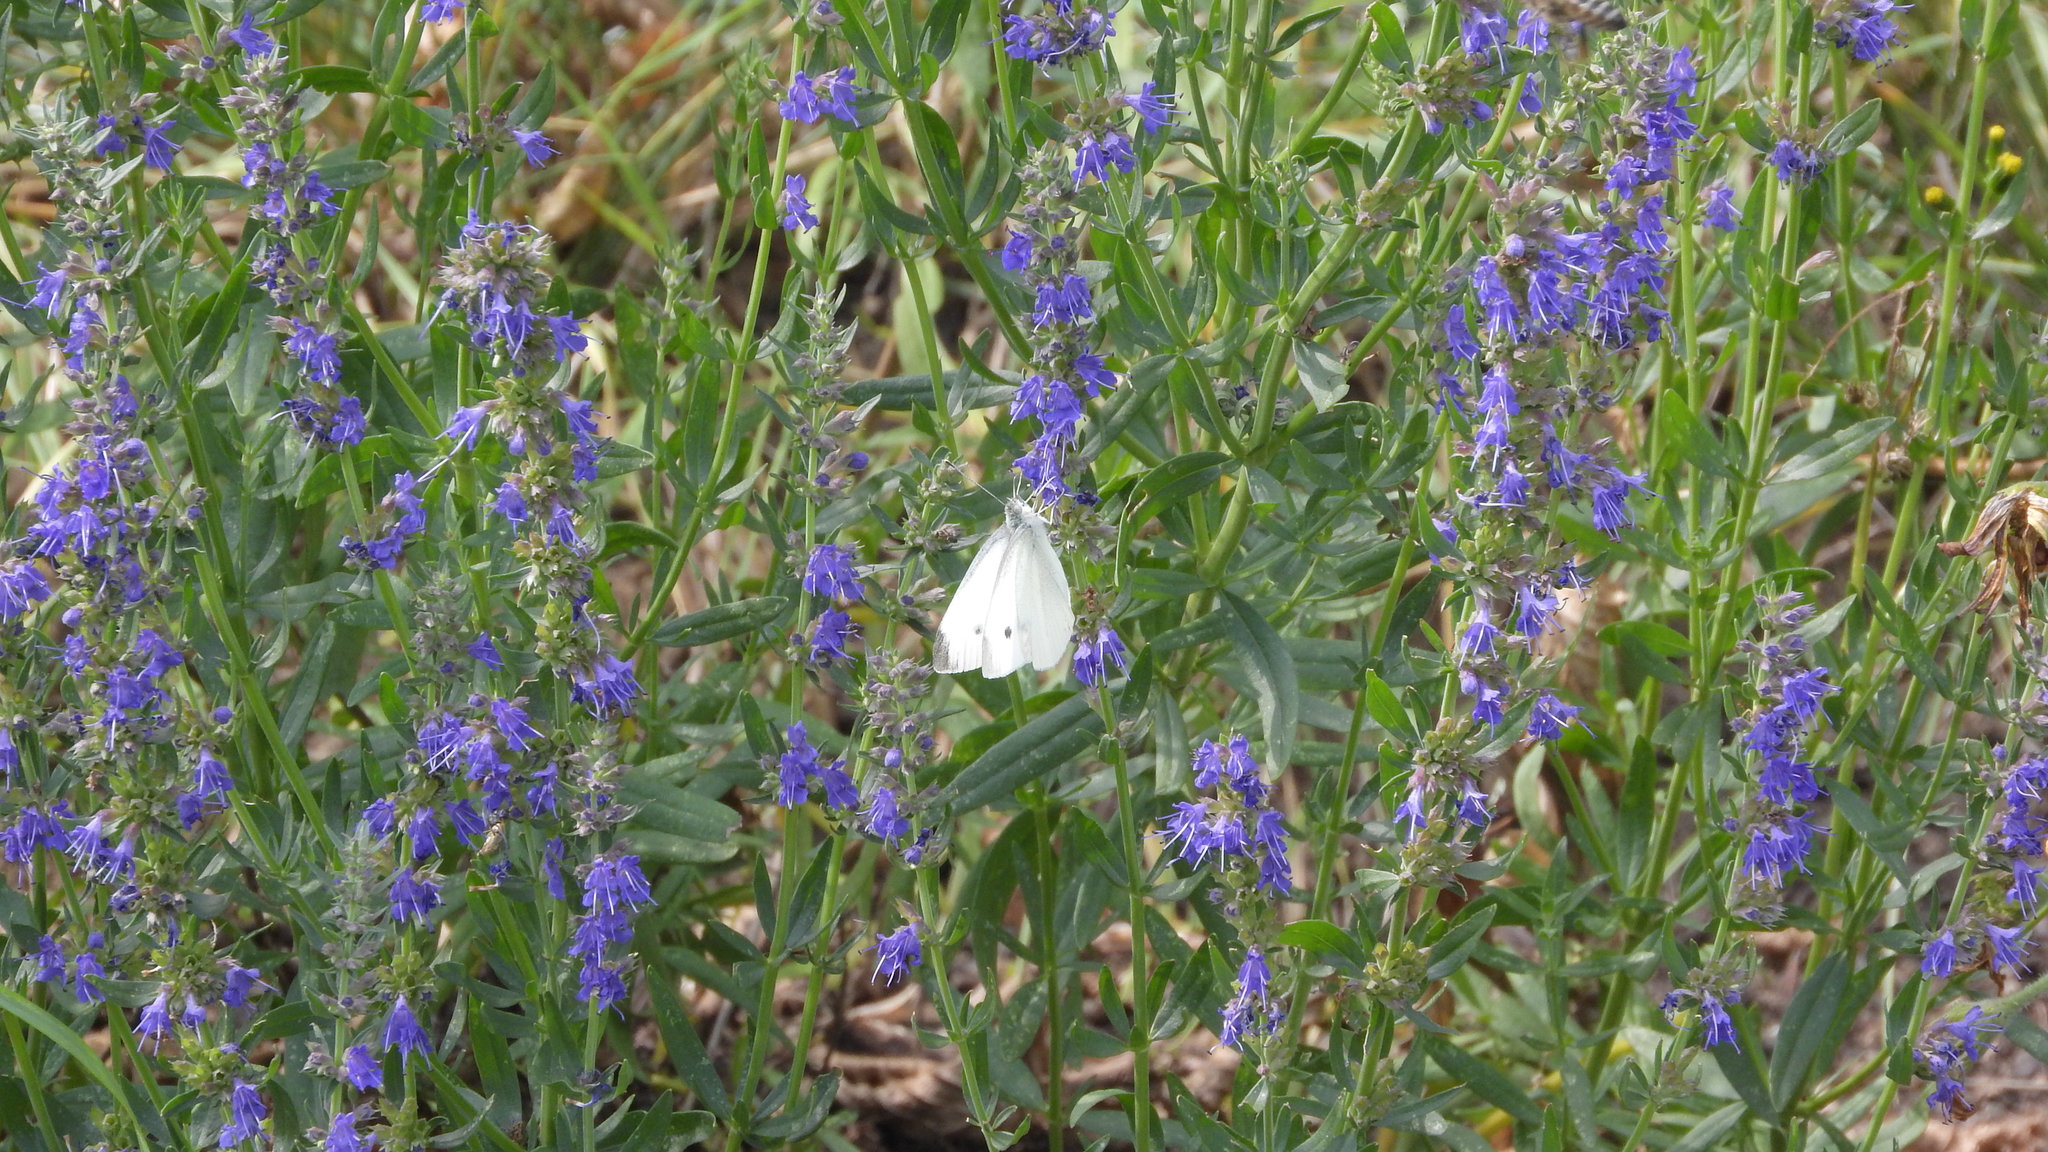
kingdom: Animalia
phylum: Arthropoda
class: Insecta
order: Lepidoptera
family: Pieridae
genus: Pieris
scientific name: Pieris rapae
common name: Small white
